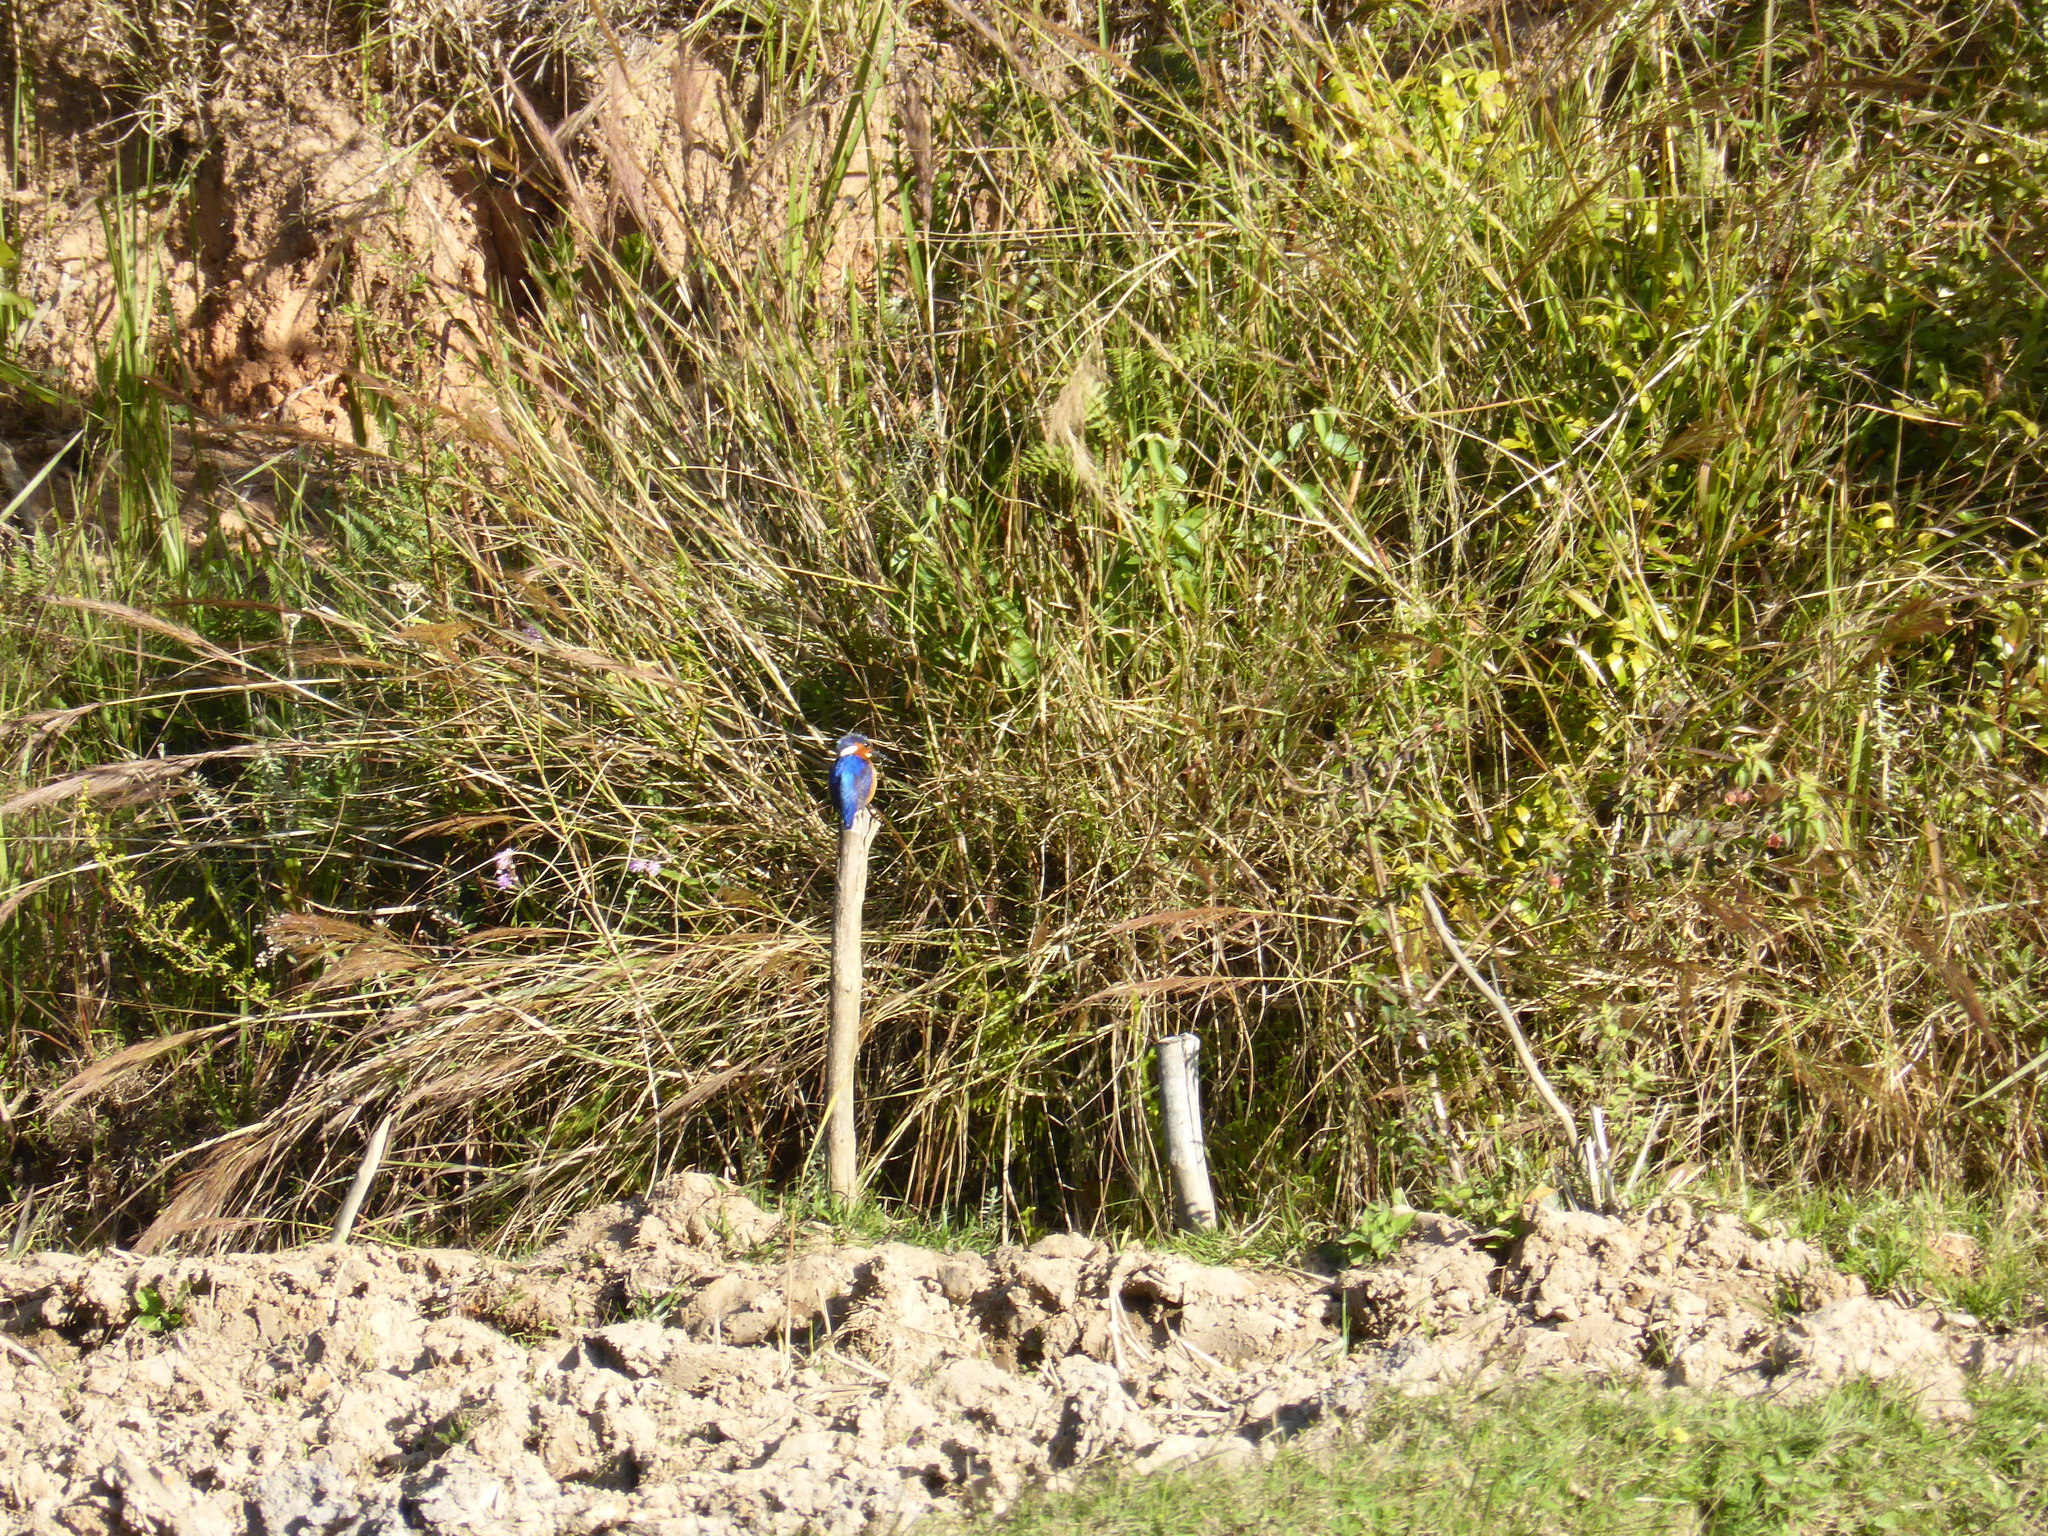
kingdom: Animalia
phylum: Chordata
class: Aves
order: Coraciiformes
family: Alcedinidae
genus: Corythornis
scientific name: Corythornis vintsioides
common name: Malagasy kingfisher
